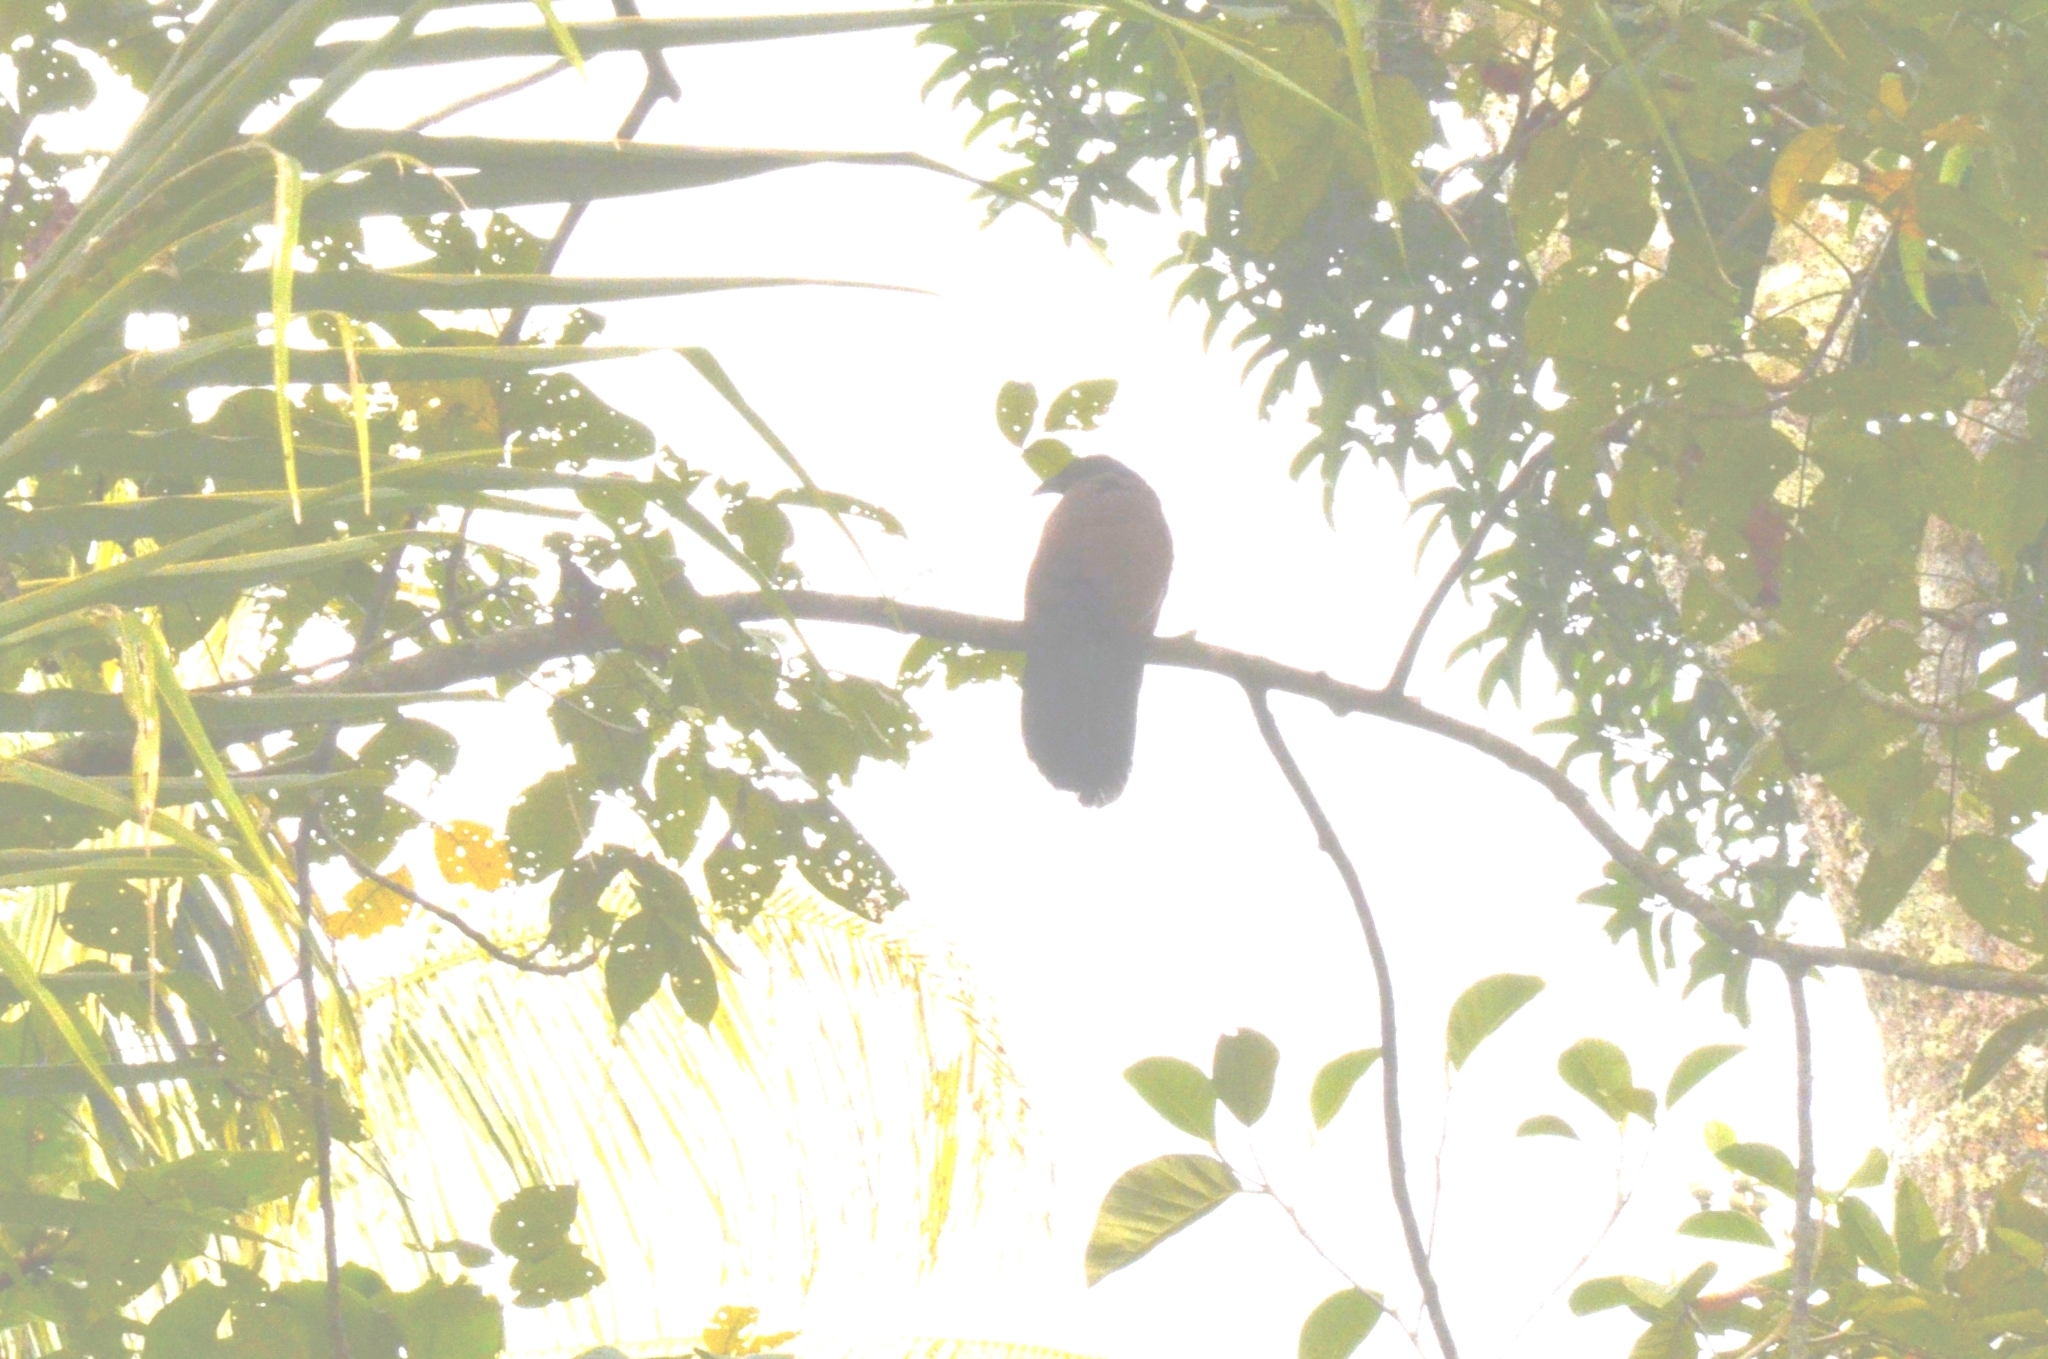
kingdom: Animalia
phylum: Chordata
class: Aves
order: Cuculiformes
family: Cuculidae
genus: Centropus
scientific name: Centropus sinensis
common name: Greater coucal
